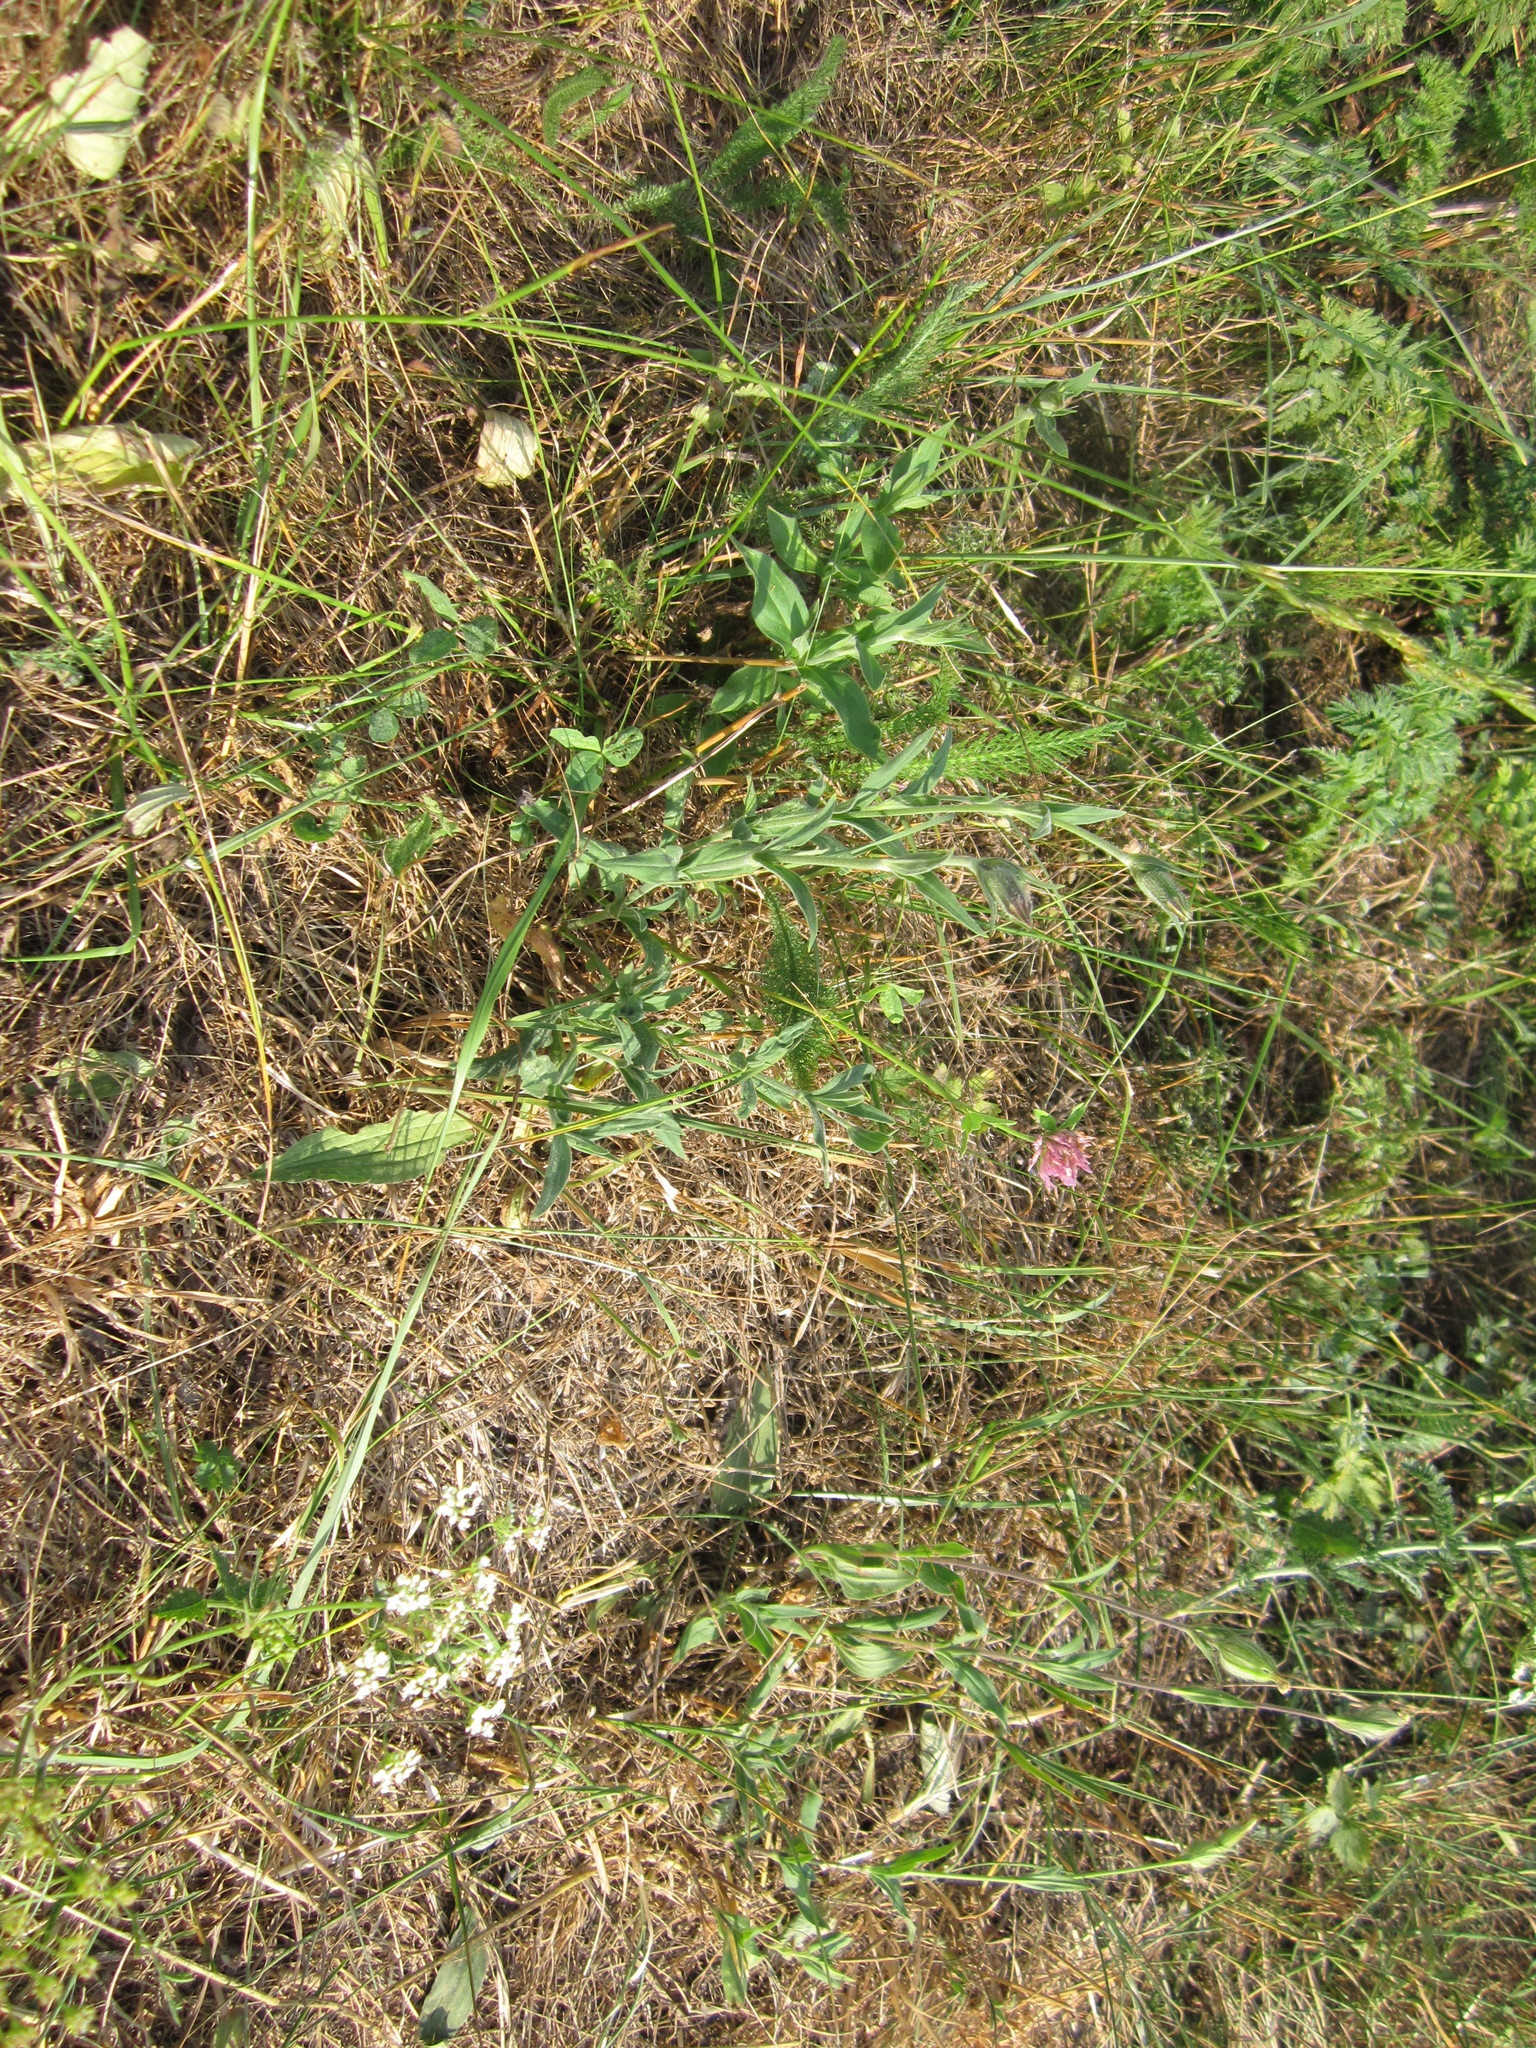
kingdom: Plantae
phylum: Tracheophyta
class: Magnoliopsida
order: Fabales
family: Fabaceae
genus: Trifolium
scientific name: Trifolium pratense
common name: Red clover
